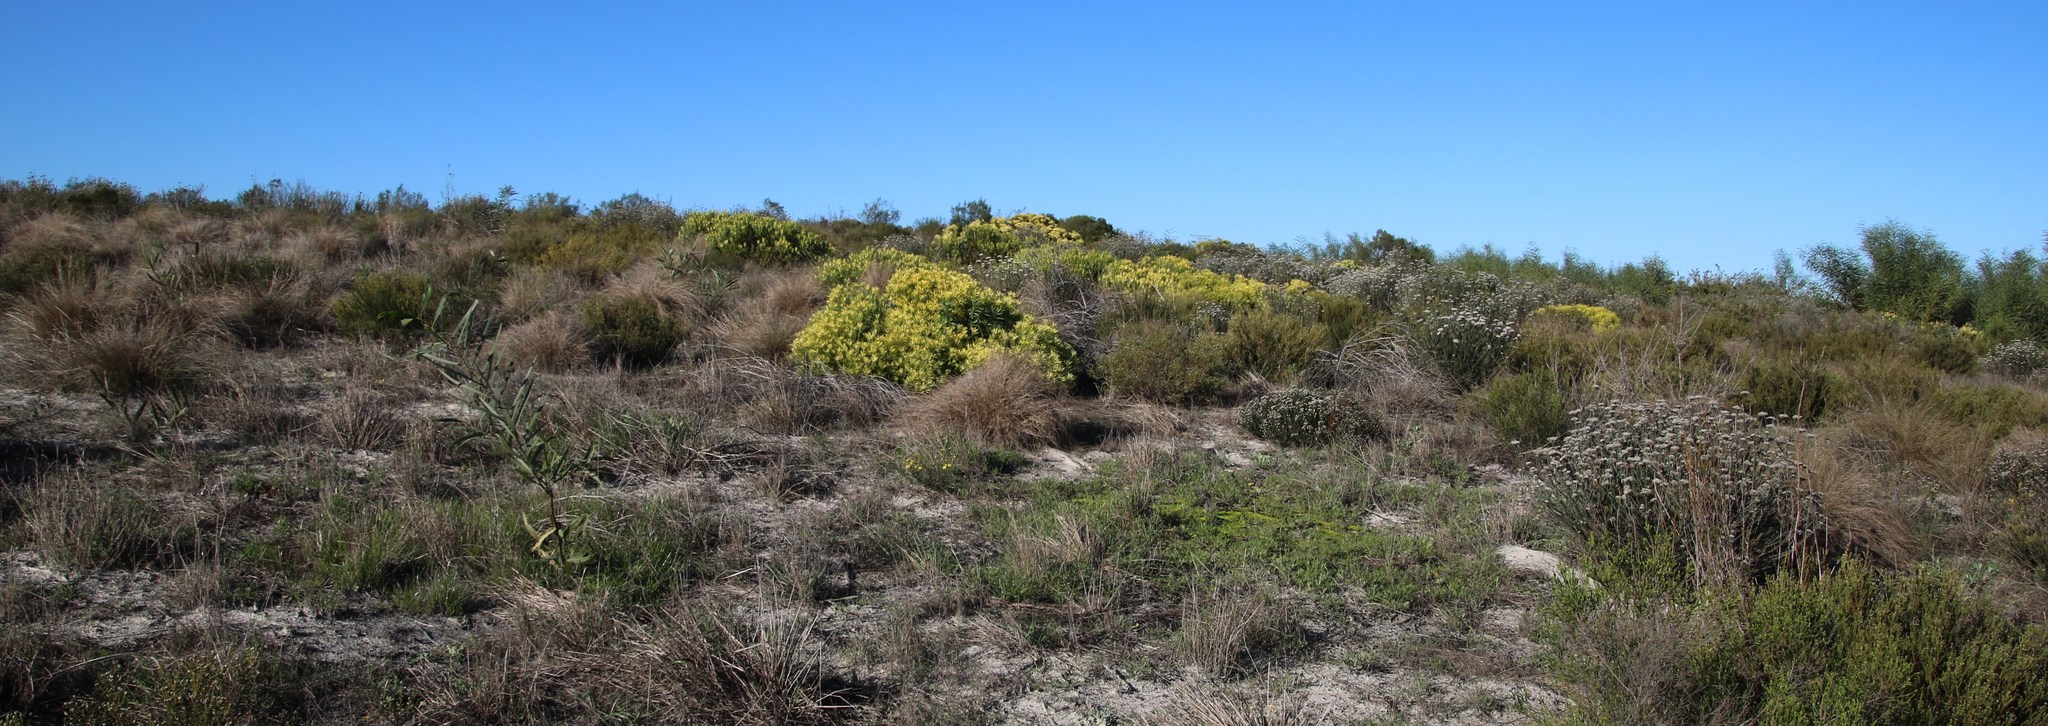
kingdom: Plantae
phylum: Tracheophyta
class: Magnoliopsida
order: Proteales
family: Proteaceae
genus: Leucadendron
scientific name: Leucadendron salignum
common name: Common sunshine conebush
